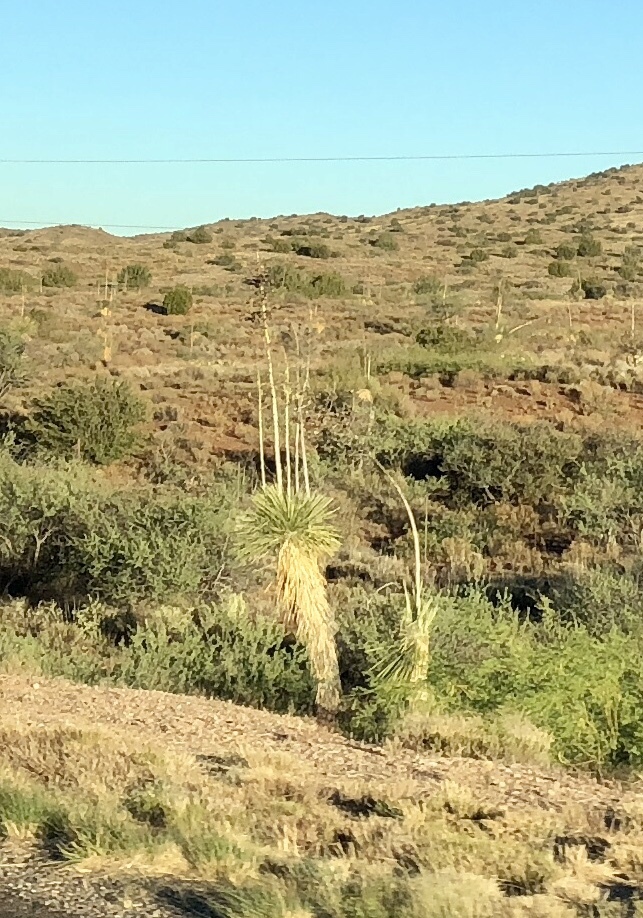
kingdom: Plantae
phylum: Tracheophyta
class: Liliopsida
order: Asparagales
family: Asparagaceae
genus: Yucca
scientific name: Yucca elata
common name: Palmella
